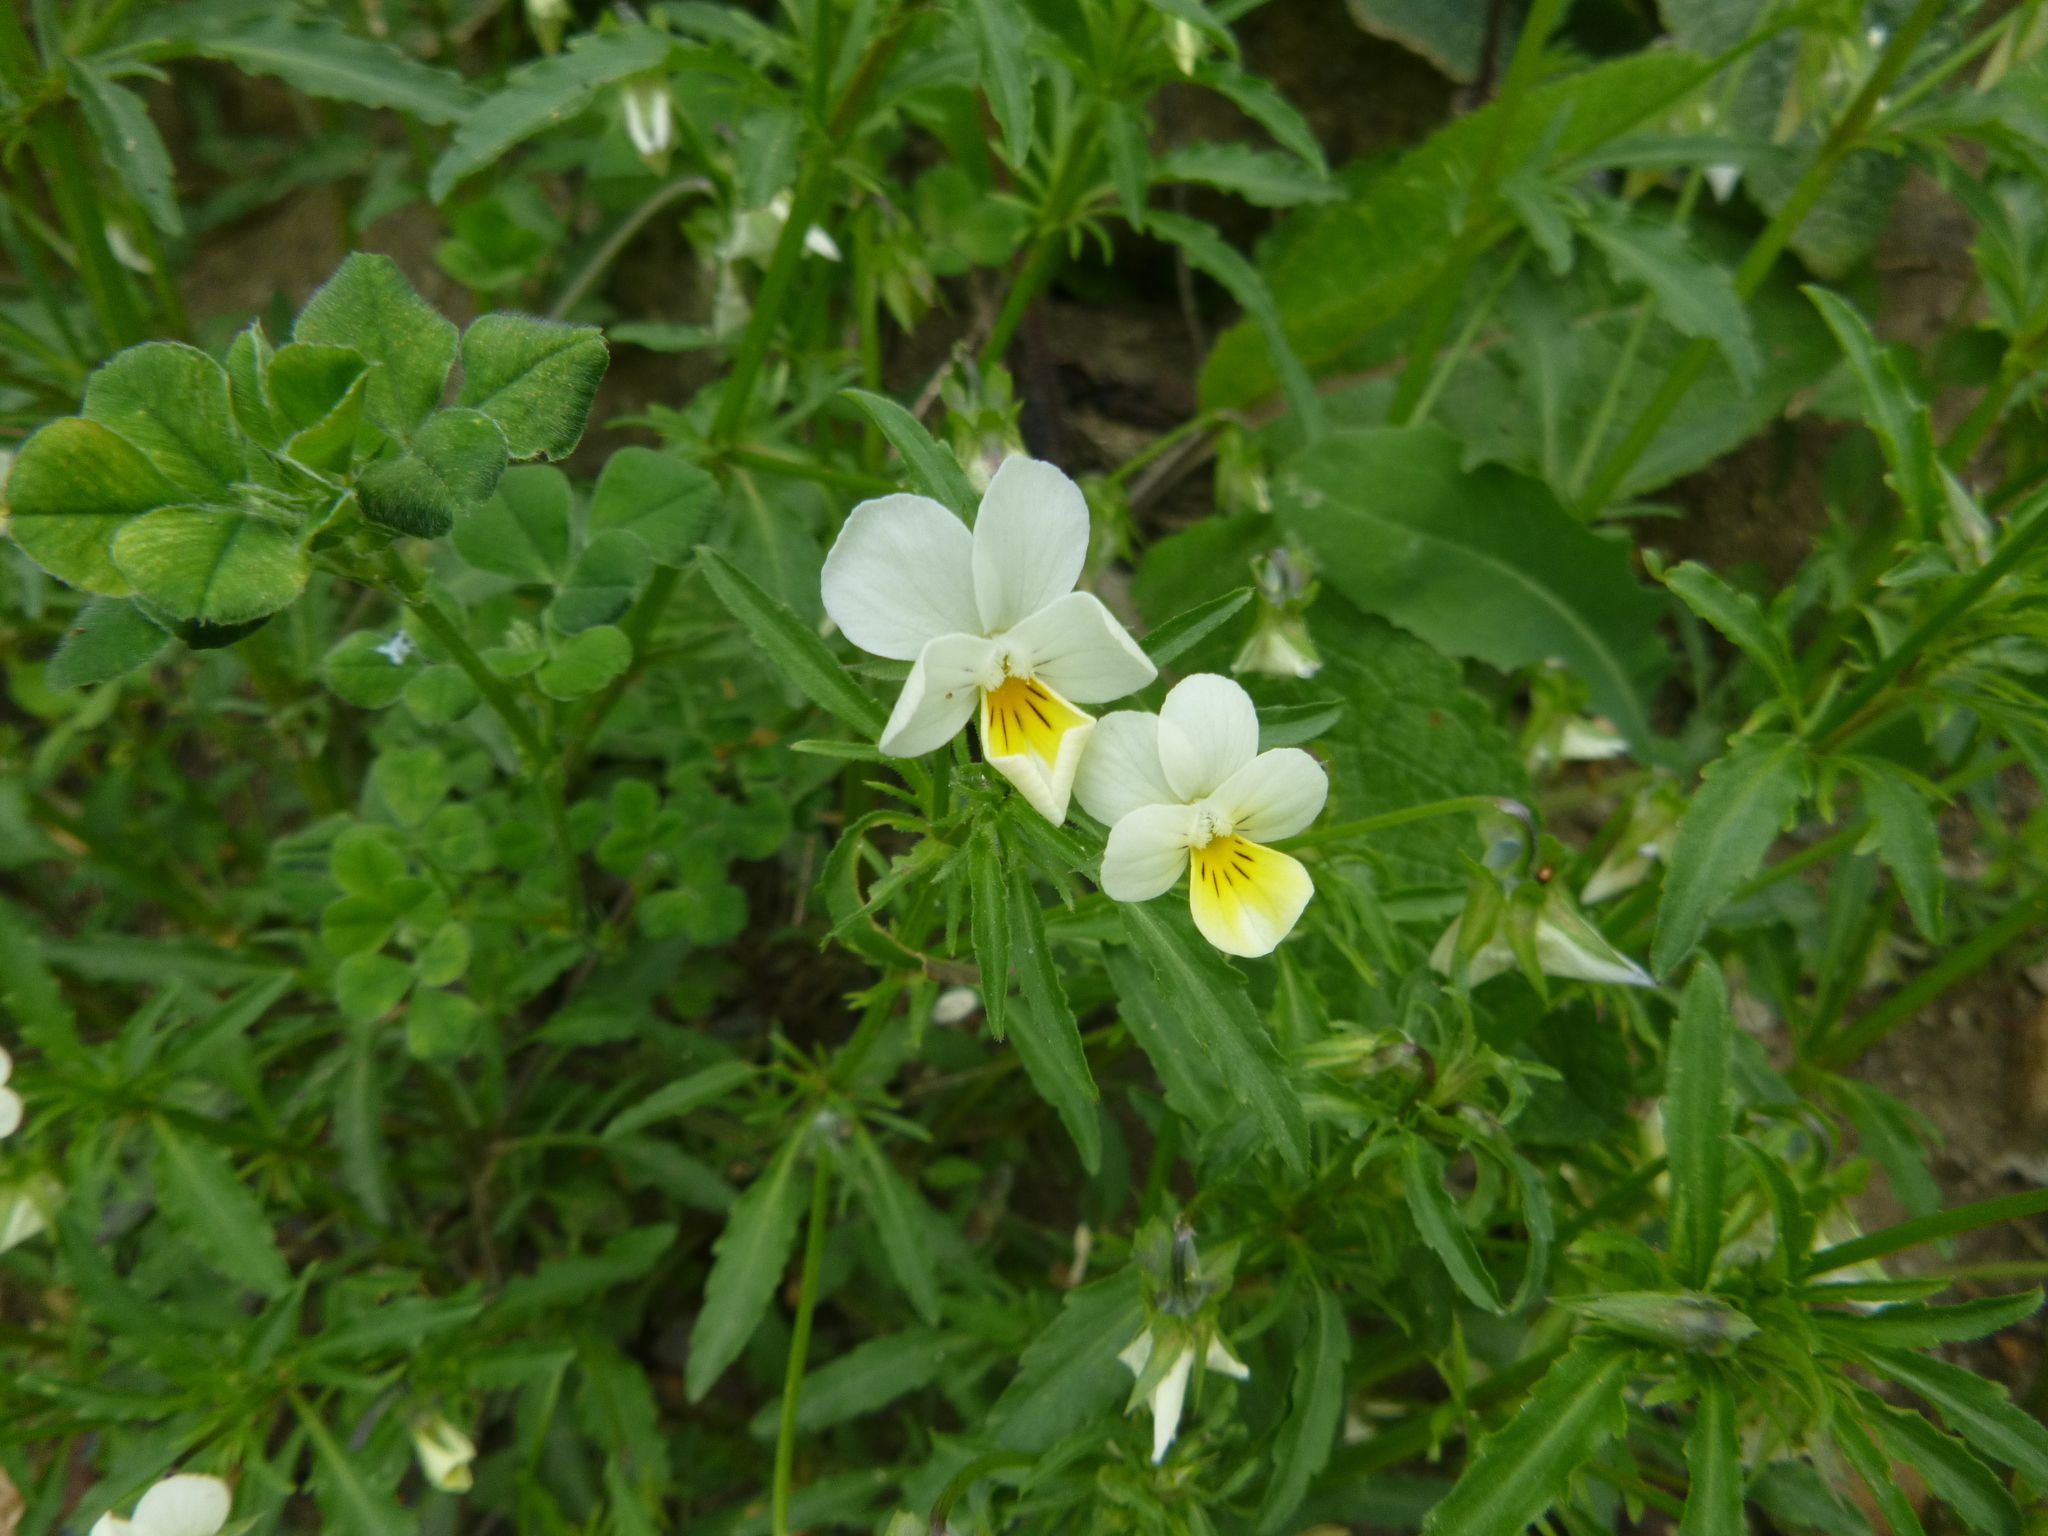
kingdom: Plantae
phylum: Tracheophyta
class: Magnoliopsida
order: Malpighiales
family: Violaceae
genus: Viola
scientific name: Viola arvensis
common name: Field pansy
